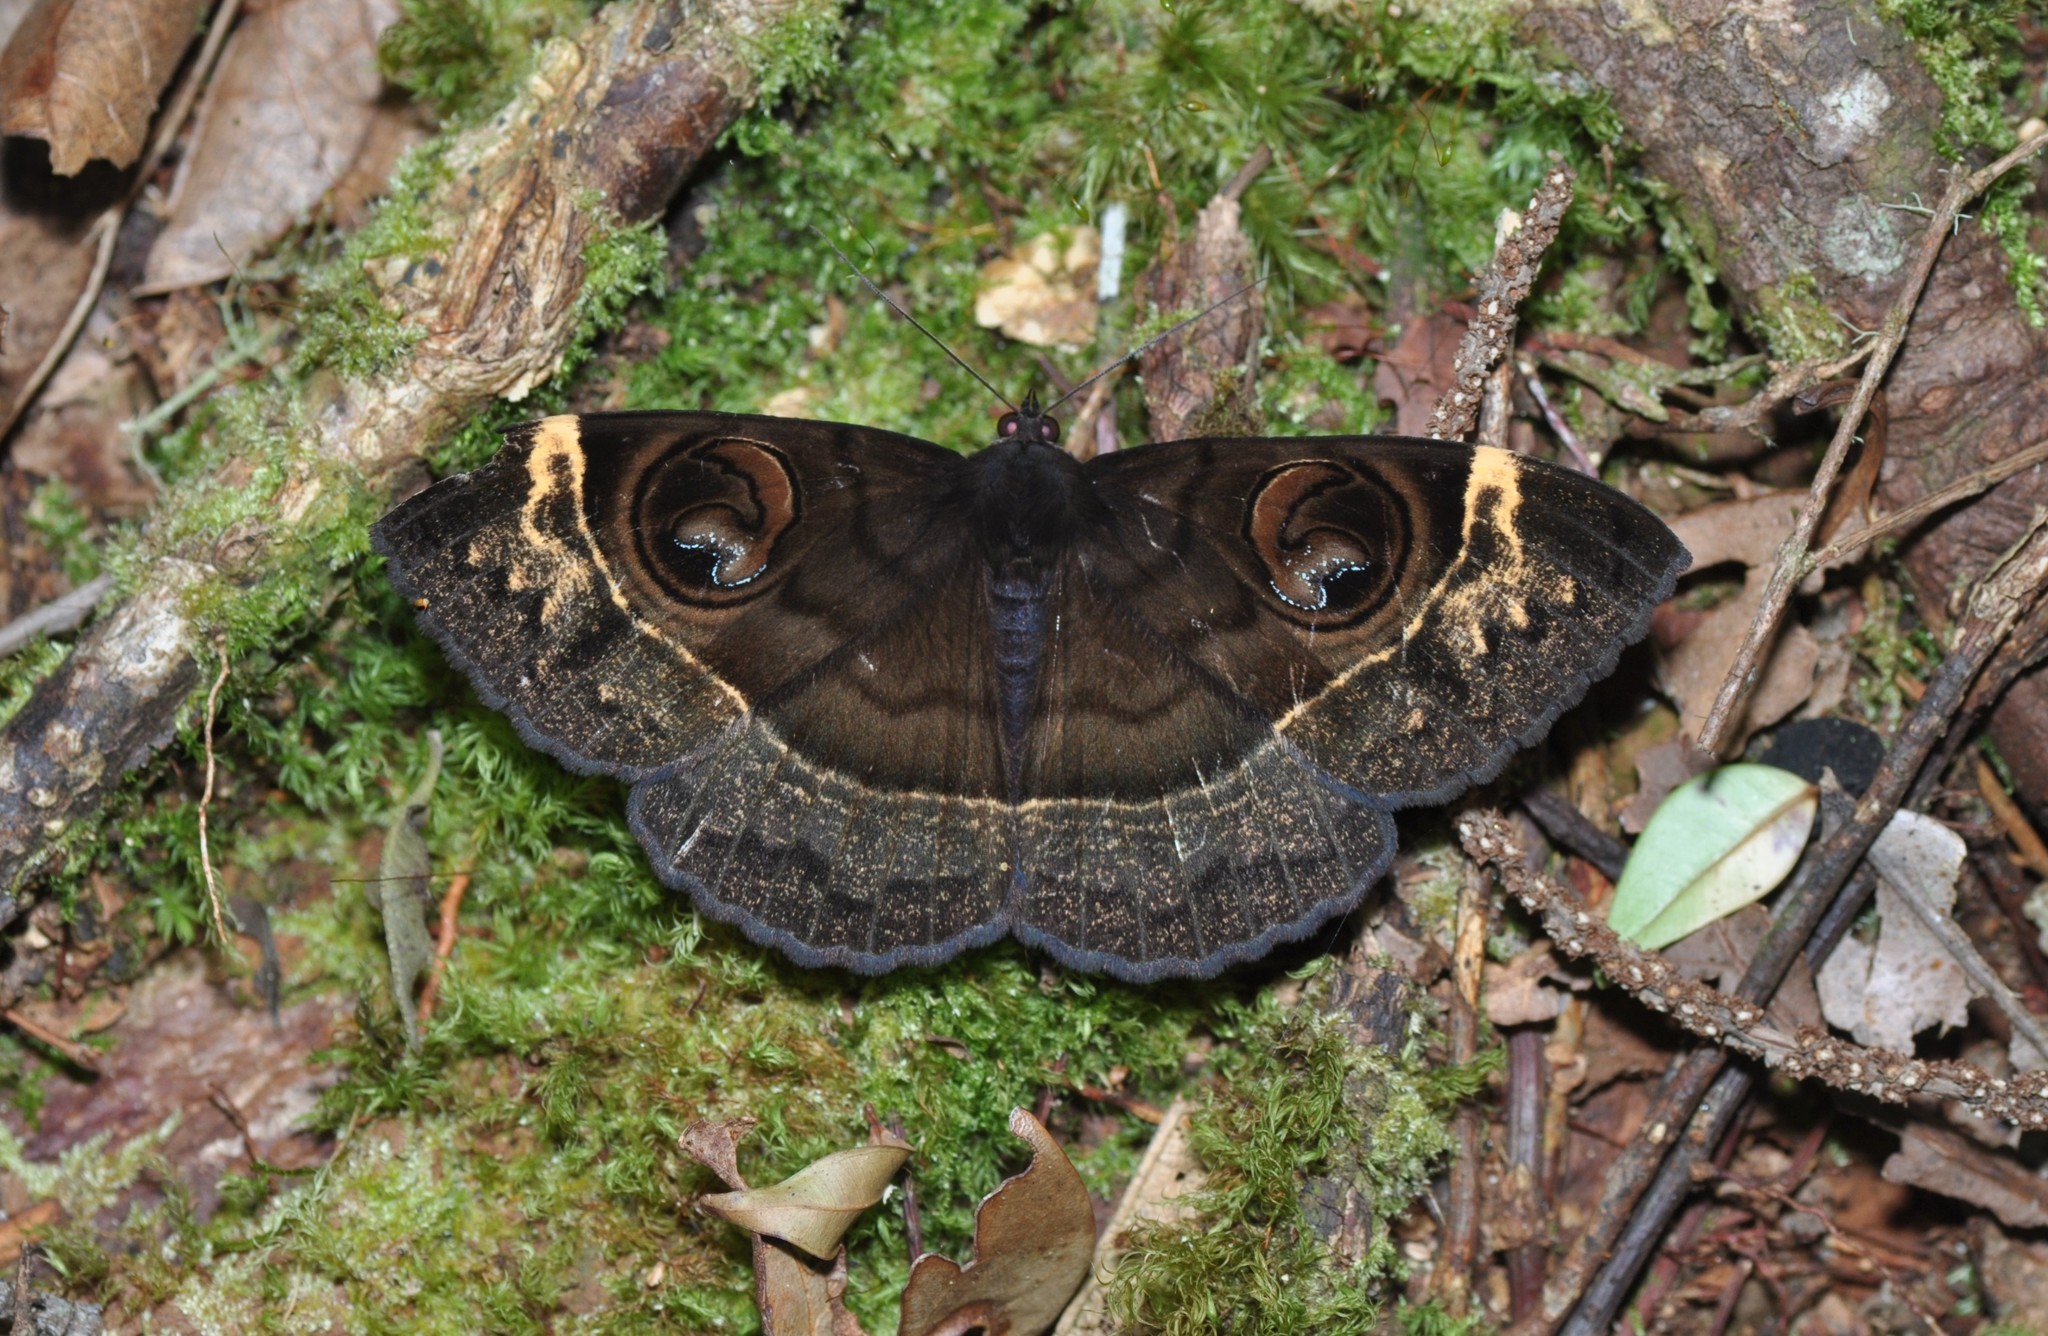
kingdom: Animalia
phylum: Arthropoda
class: Insecta
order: Lepidoptera
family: Erebidae
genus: Erebus
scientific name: Erebus hieroglyphica
